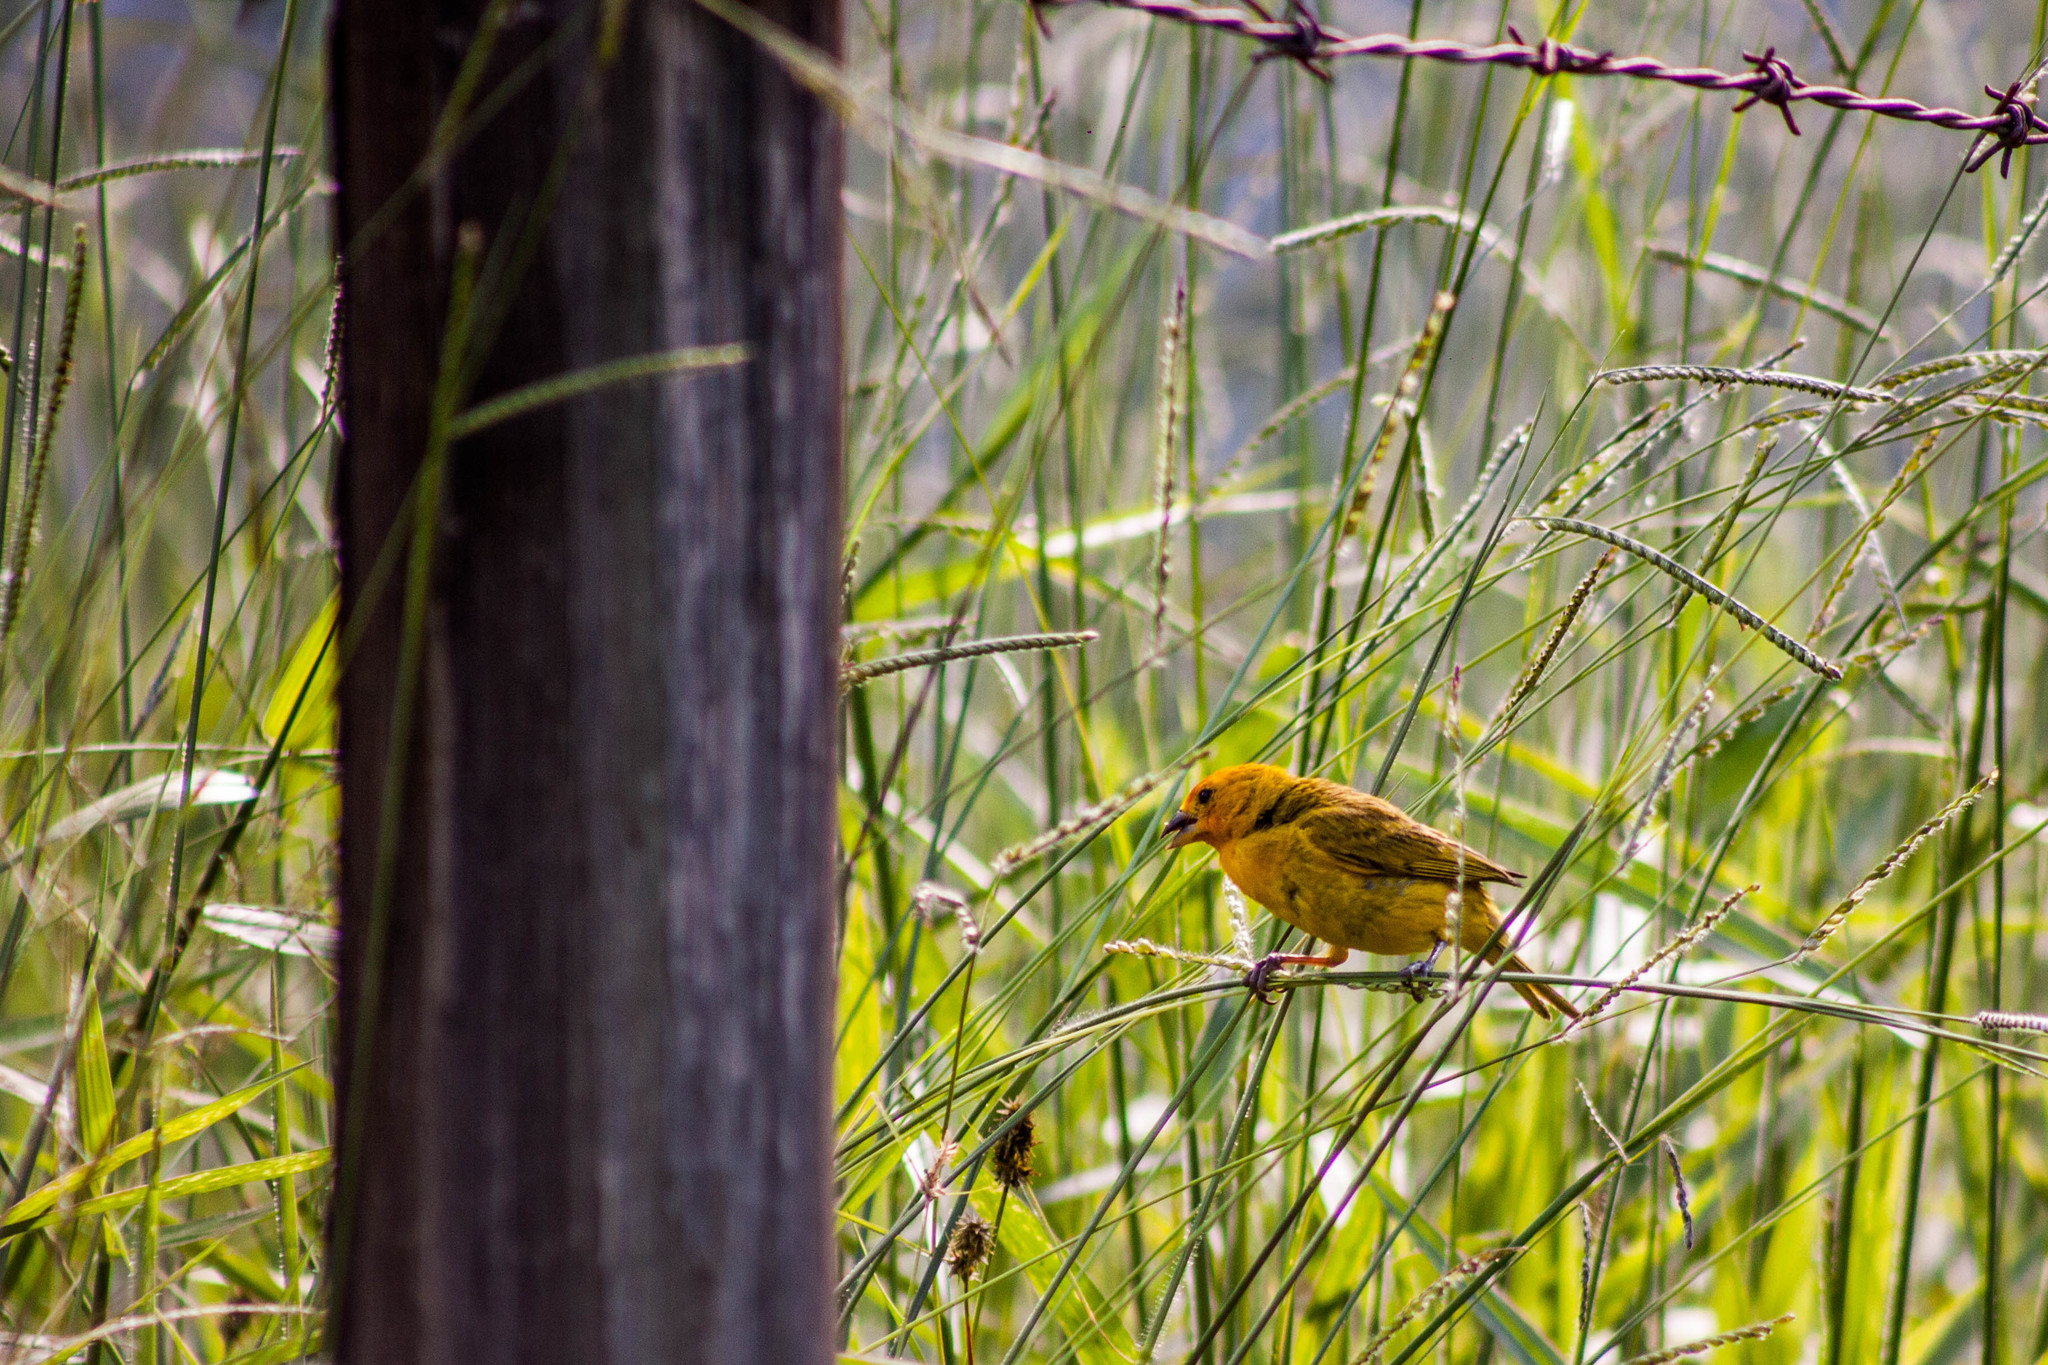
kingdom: Animalia
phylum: Chordata
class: Aves
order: Passeriformes
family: Thraupidae
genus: Sicalis
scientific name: Sicalis flaveola
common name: Saffron finch
